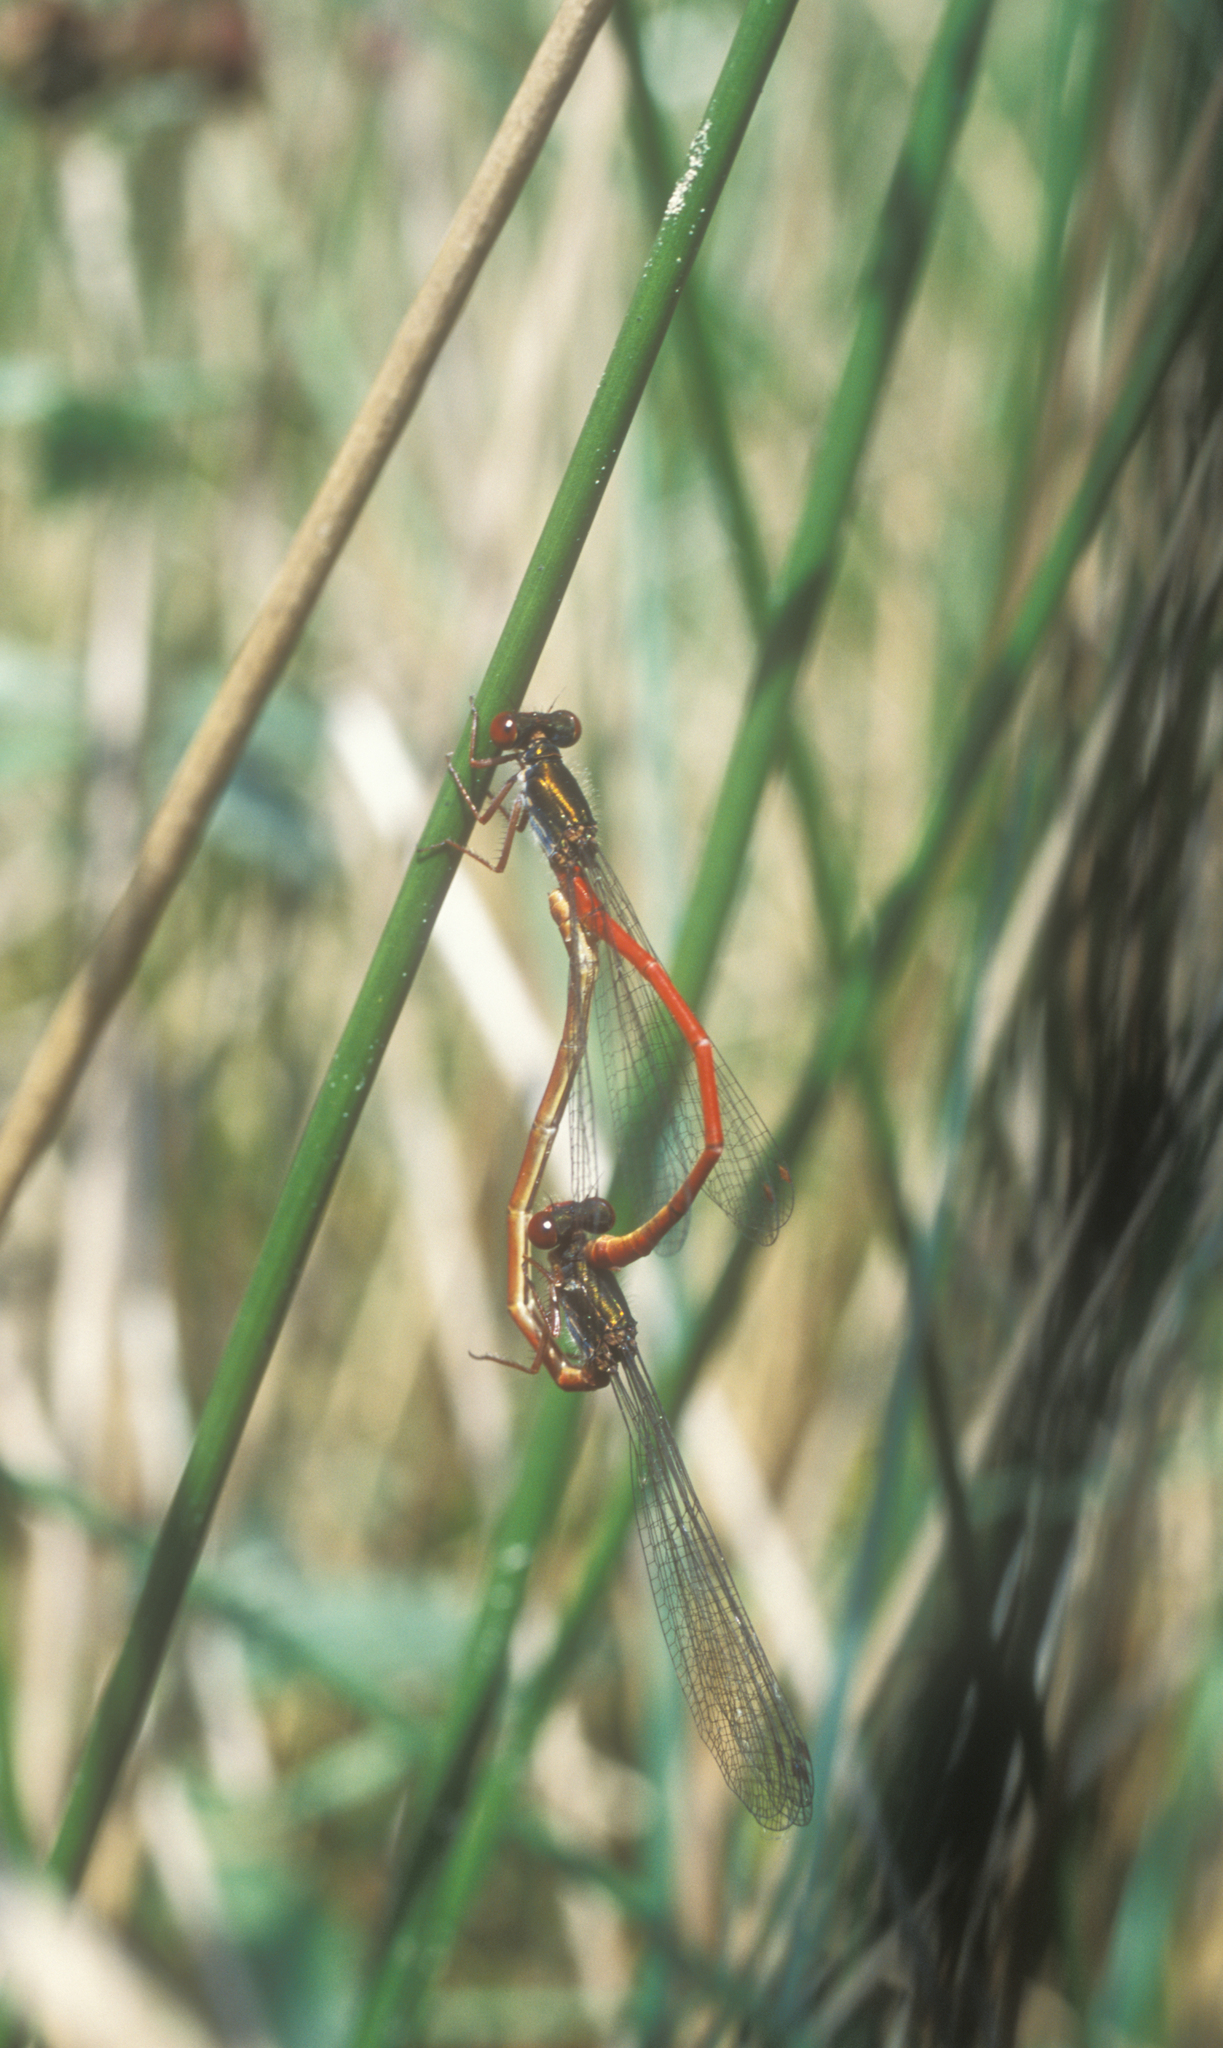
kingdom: Animalia
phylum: Arthropoda
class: Insecta
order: Odonata
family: Coenagrionidae
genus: Ceriagrion
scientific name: Ceriagrion tenellum
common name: Small red damselfly
